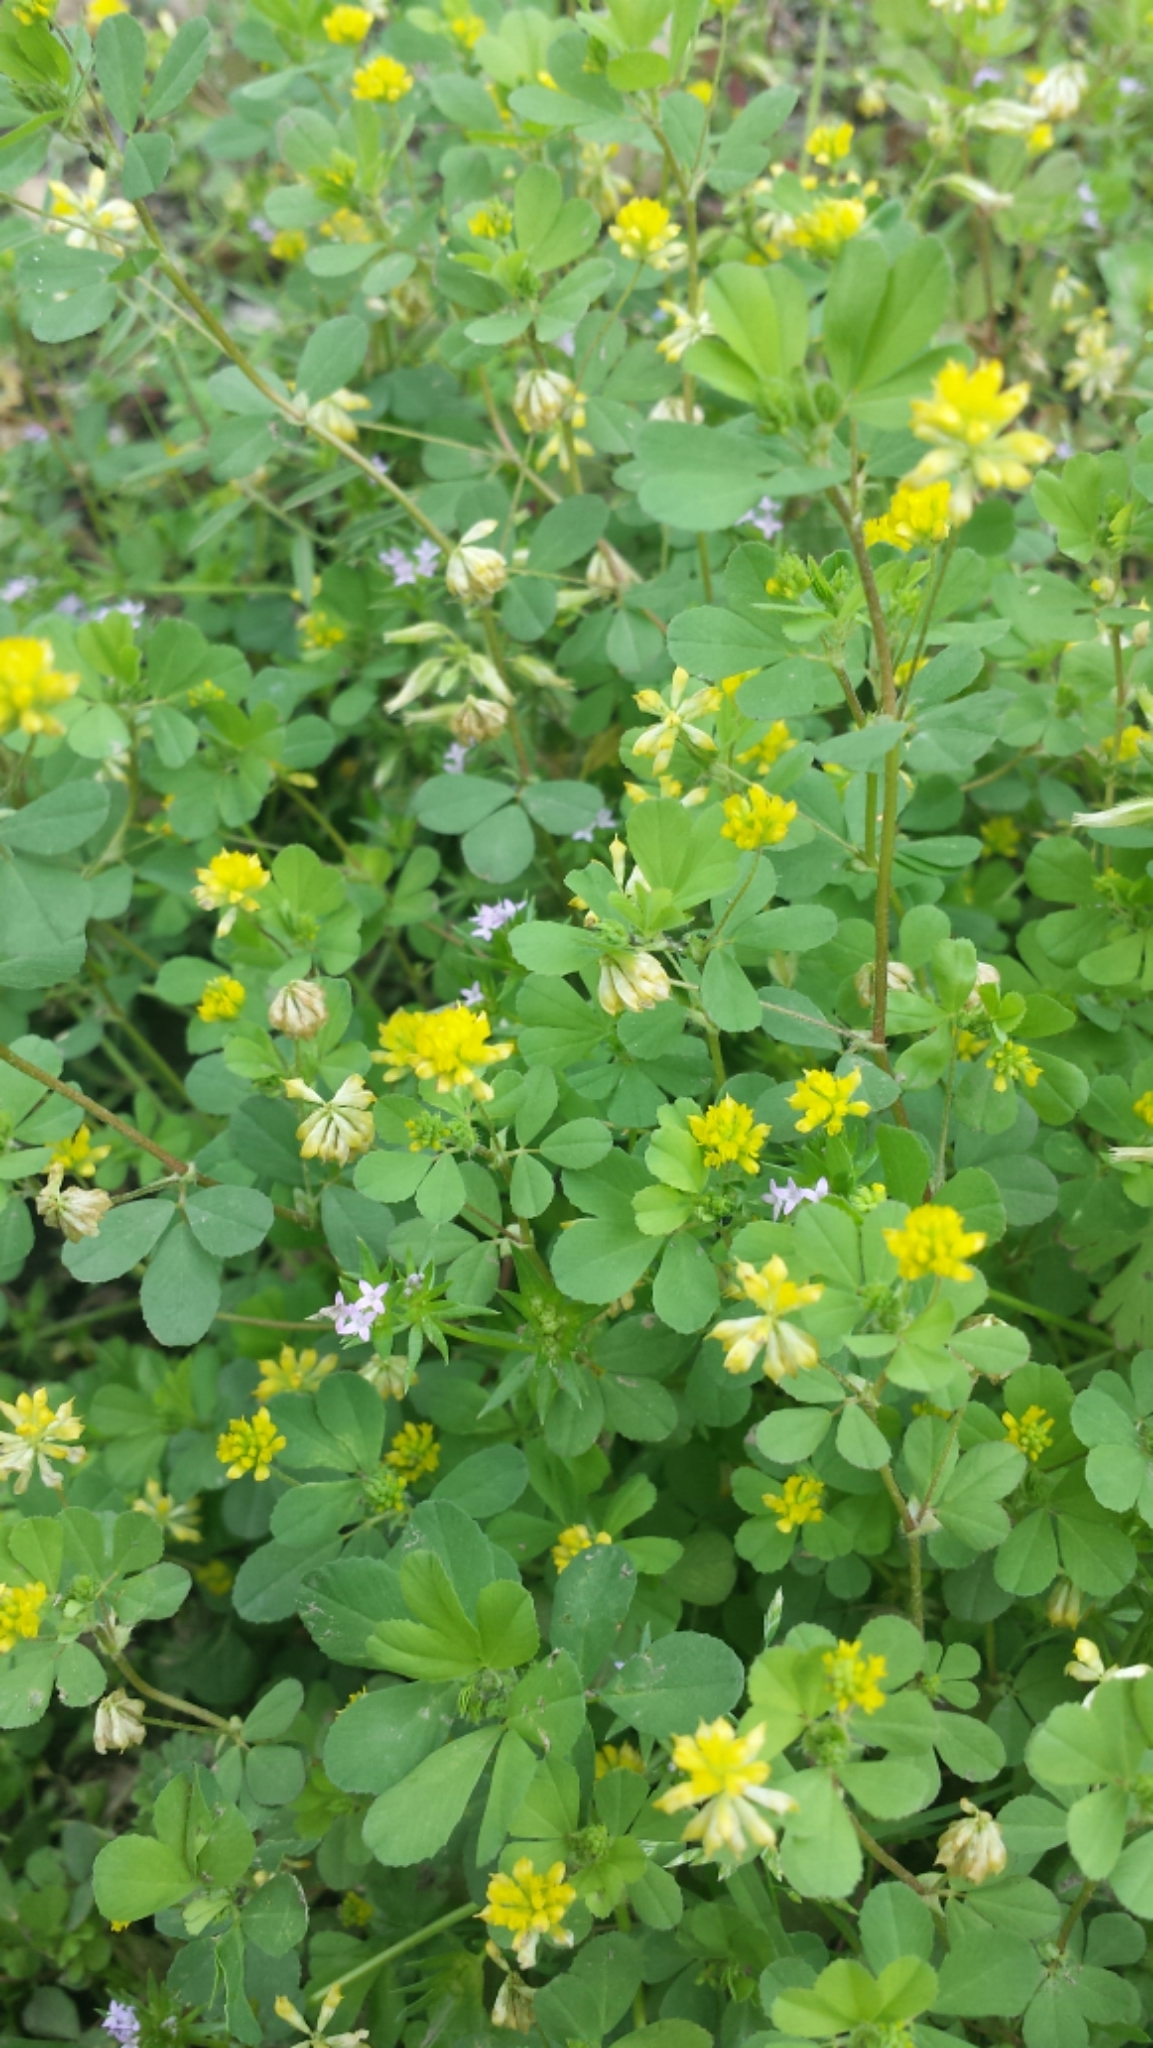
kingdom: Plantae
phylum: Tracheophyta
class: Magnoliopsida
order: Fabales
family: Fabaceae
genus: Trifolium
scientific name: Trifolium dubium
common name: Suckling clover
